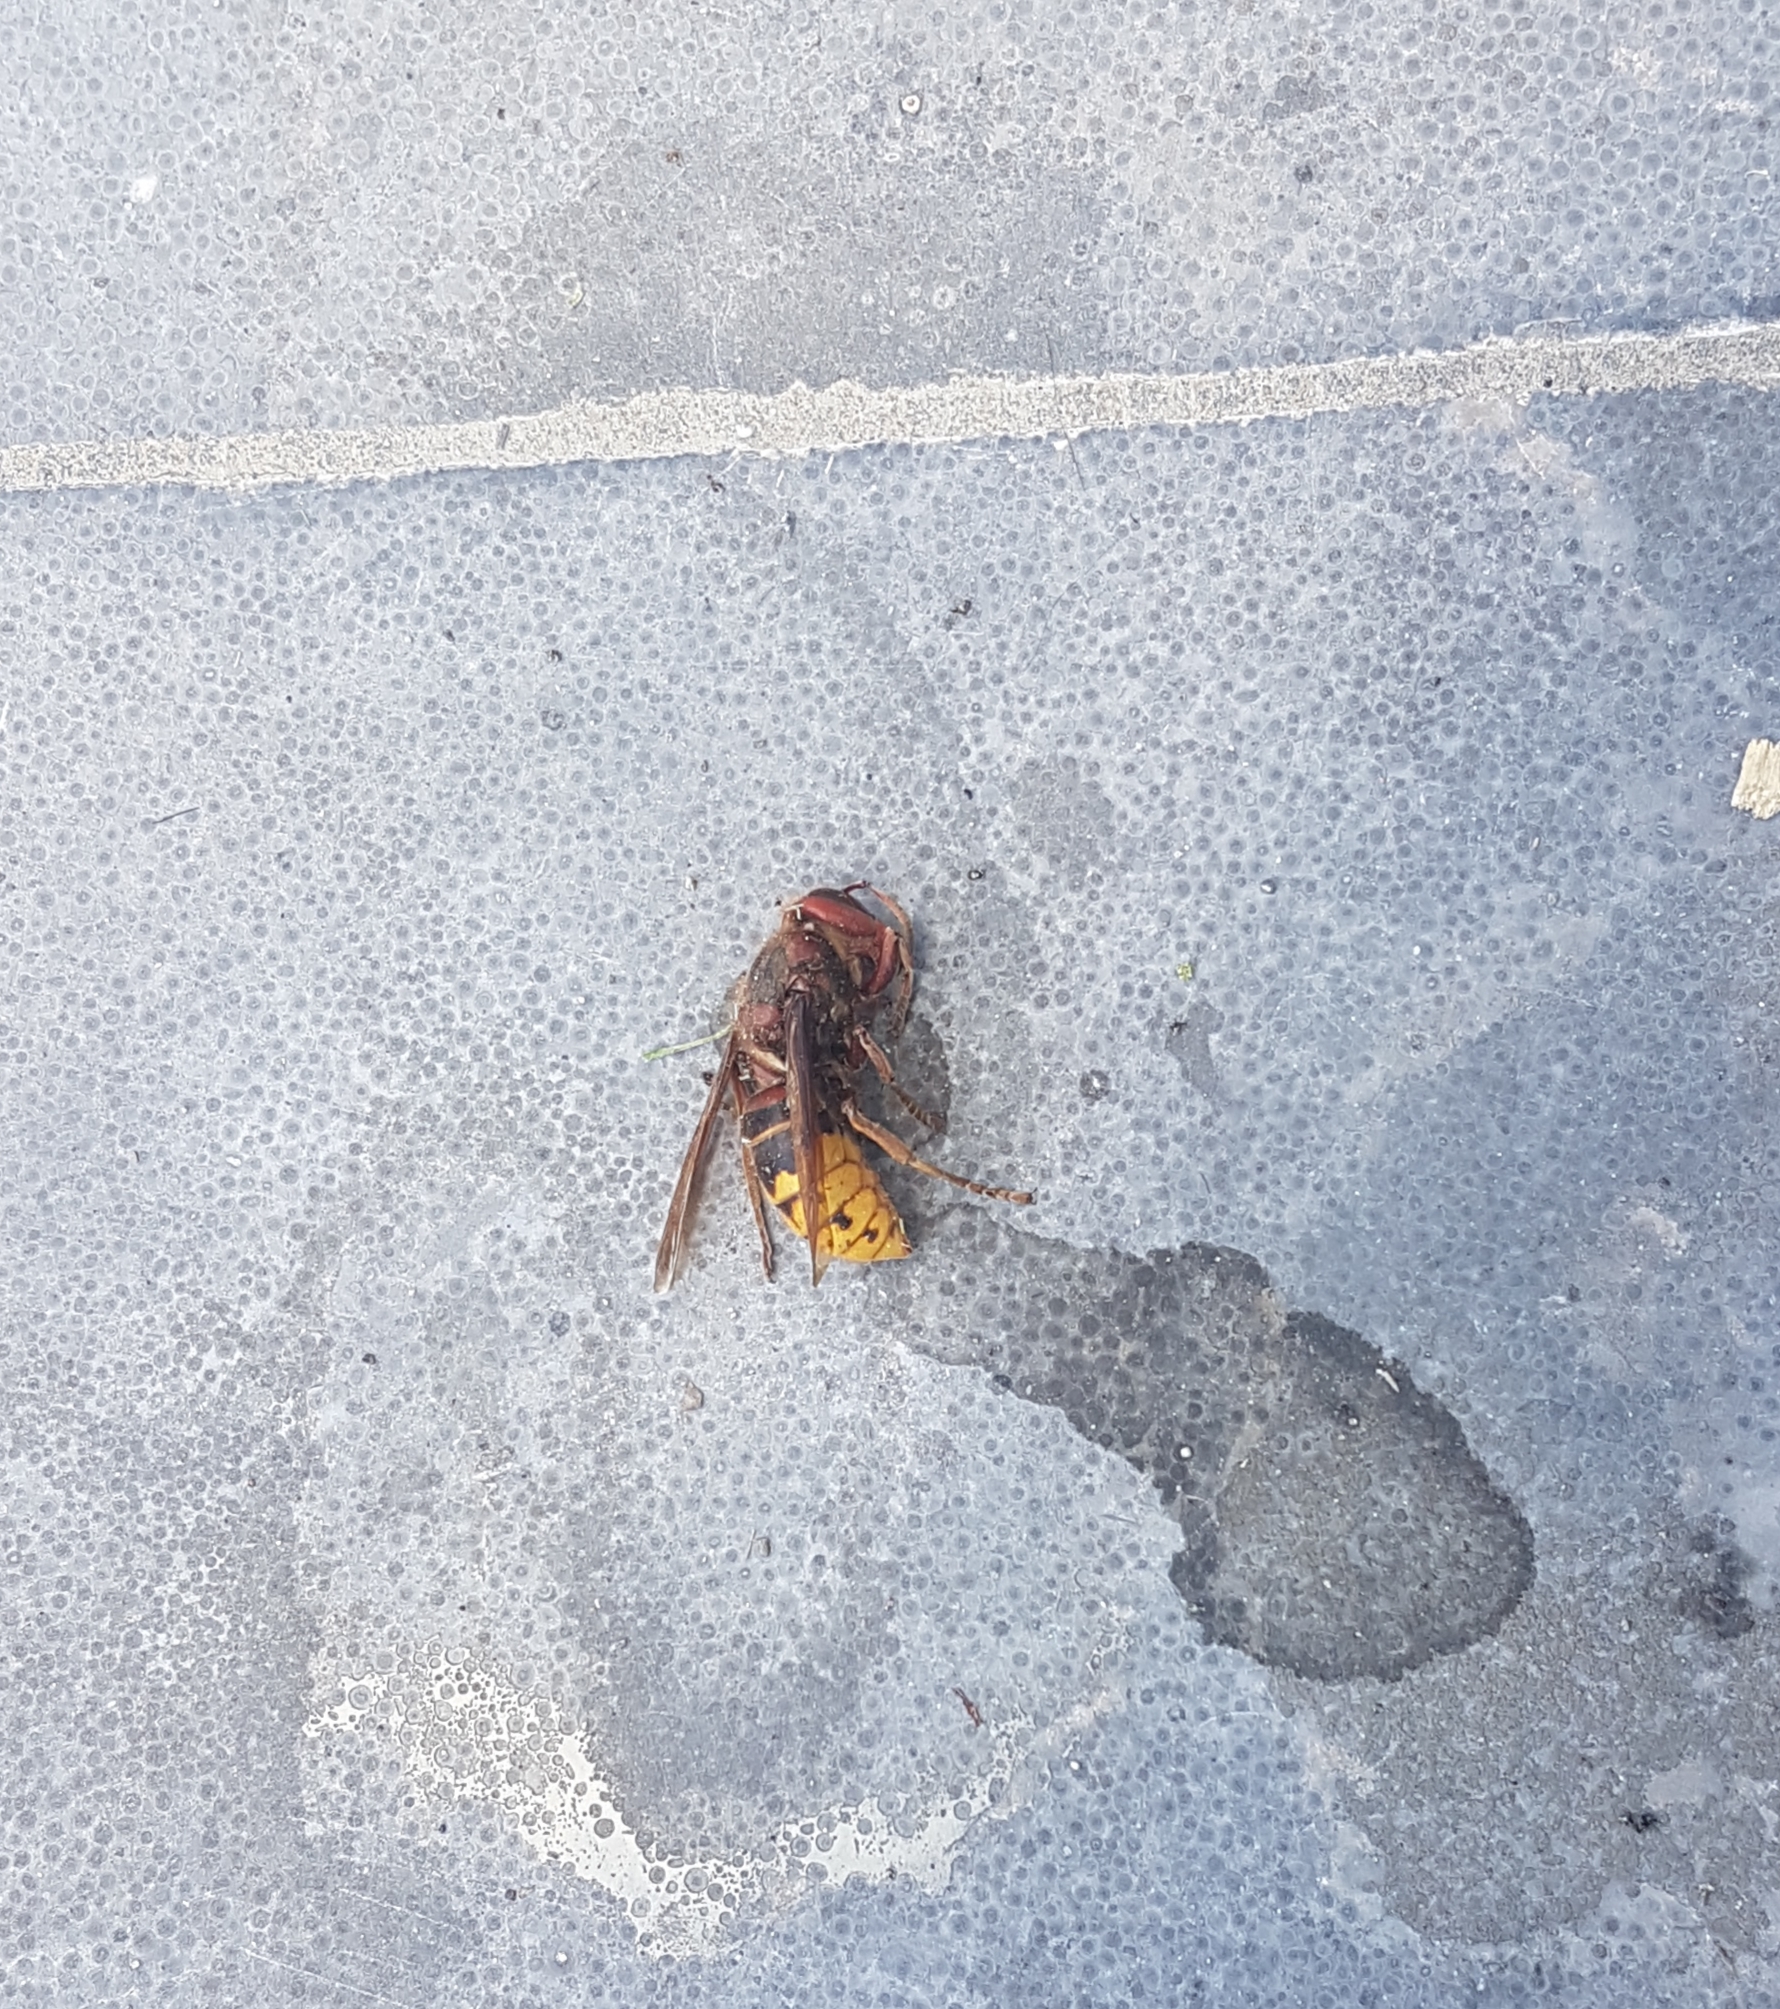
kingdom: Animalia
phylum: Arthropoda
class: Insecta
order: Hymenoptera
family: Vespidae
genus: Vespa
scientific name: Vespa crabro
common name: Hornet
